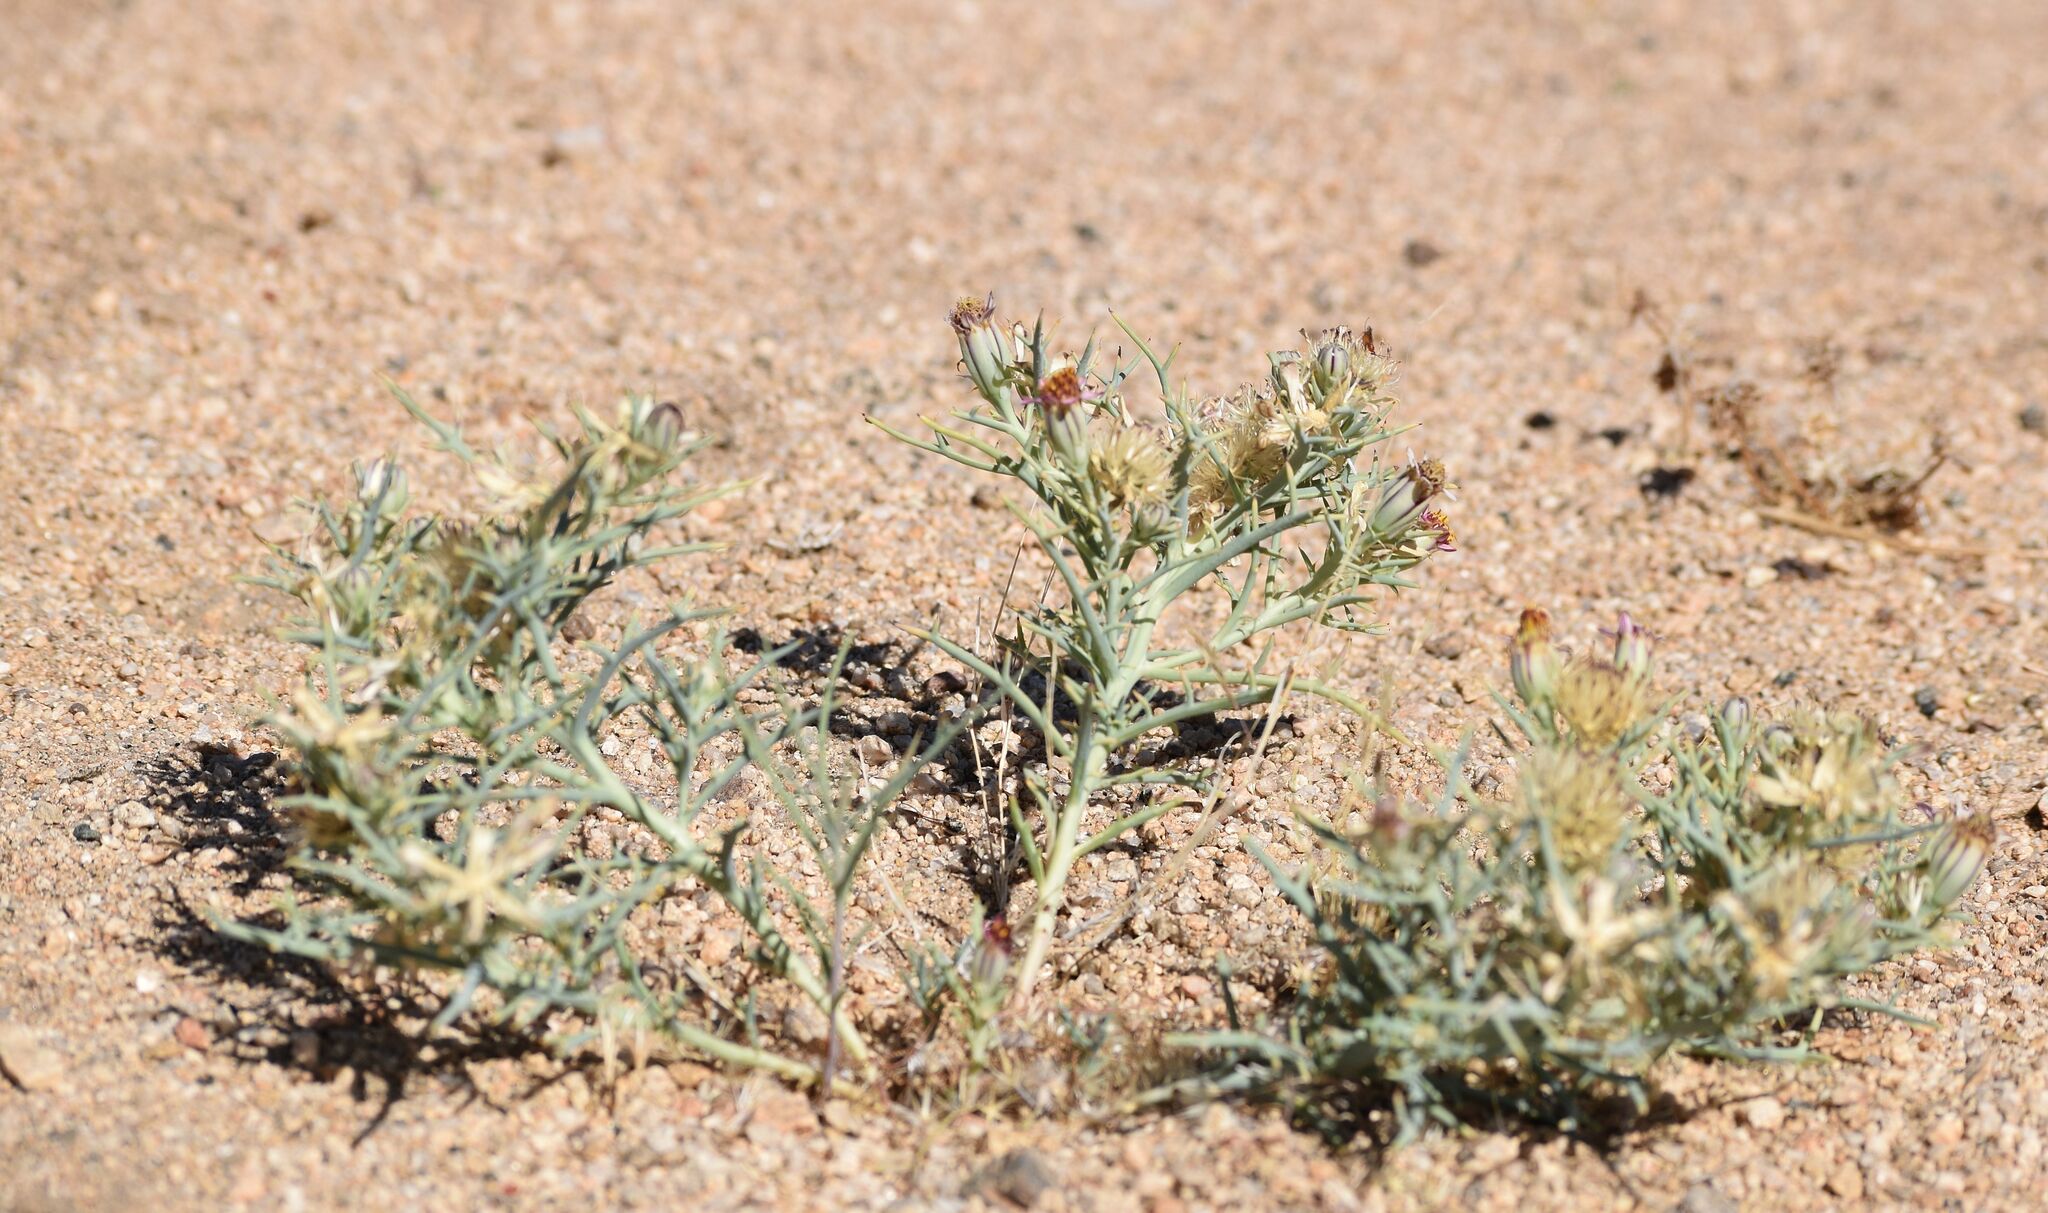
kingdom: Plantae
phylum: Tracheophyta
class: Magnoliopsida
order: Asterales
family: Asteraceae
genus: Nicolletia
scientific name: Nicolletia occidentalis
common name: Hole-in-the-sand-plant
